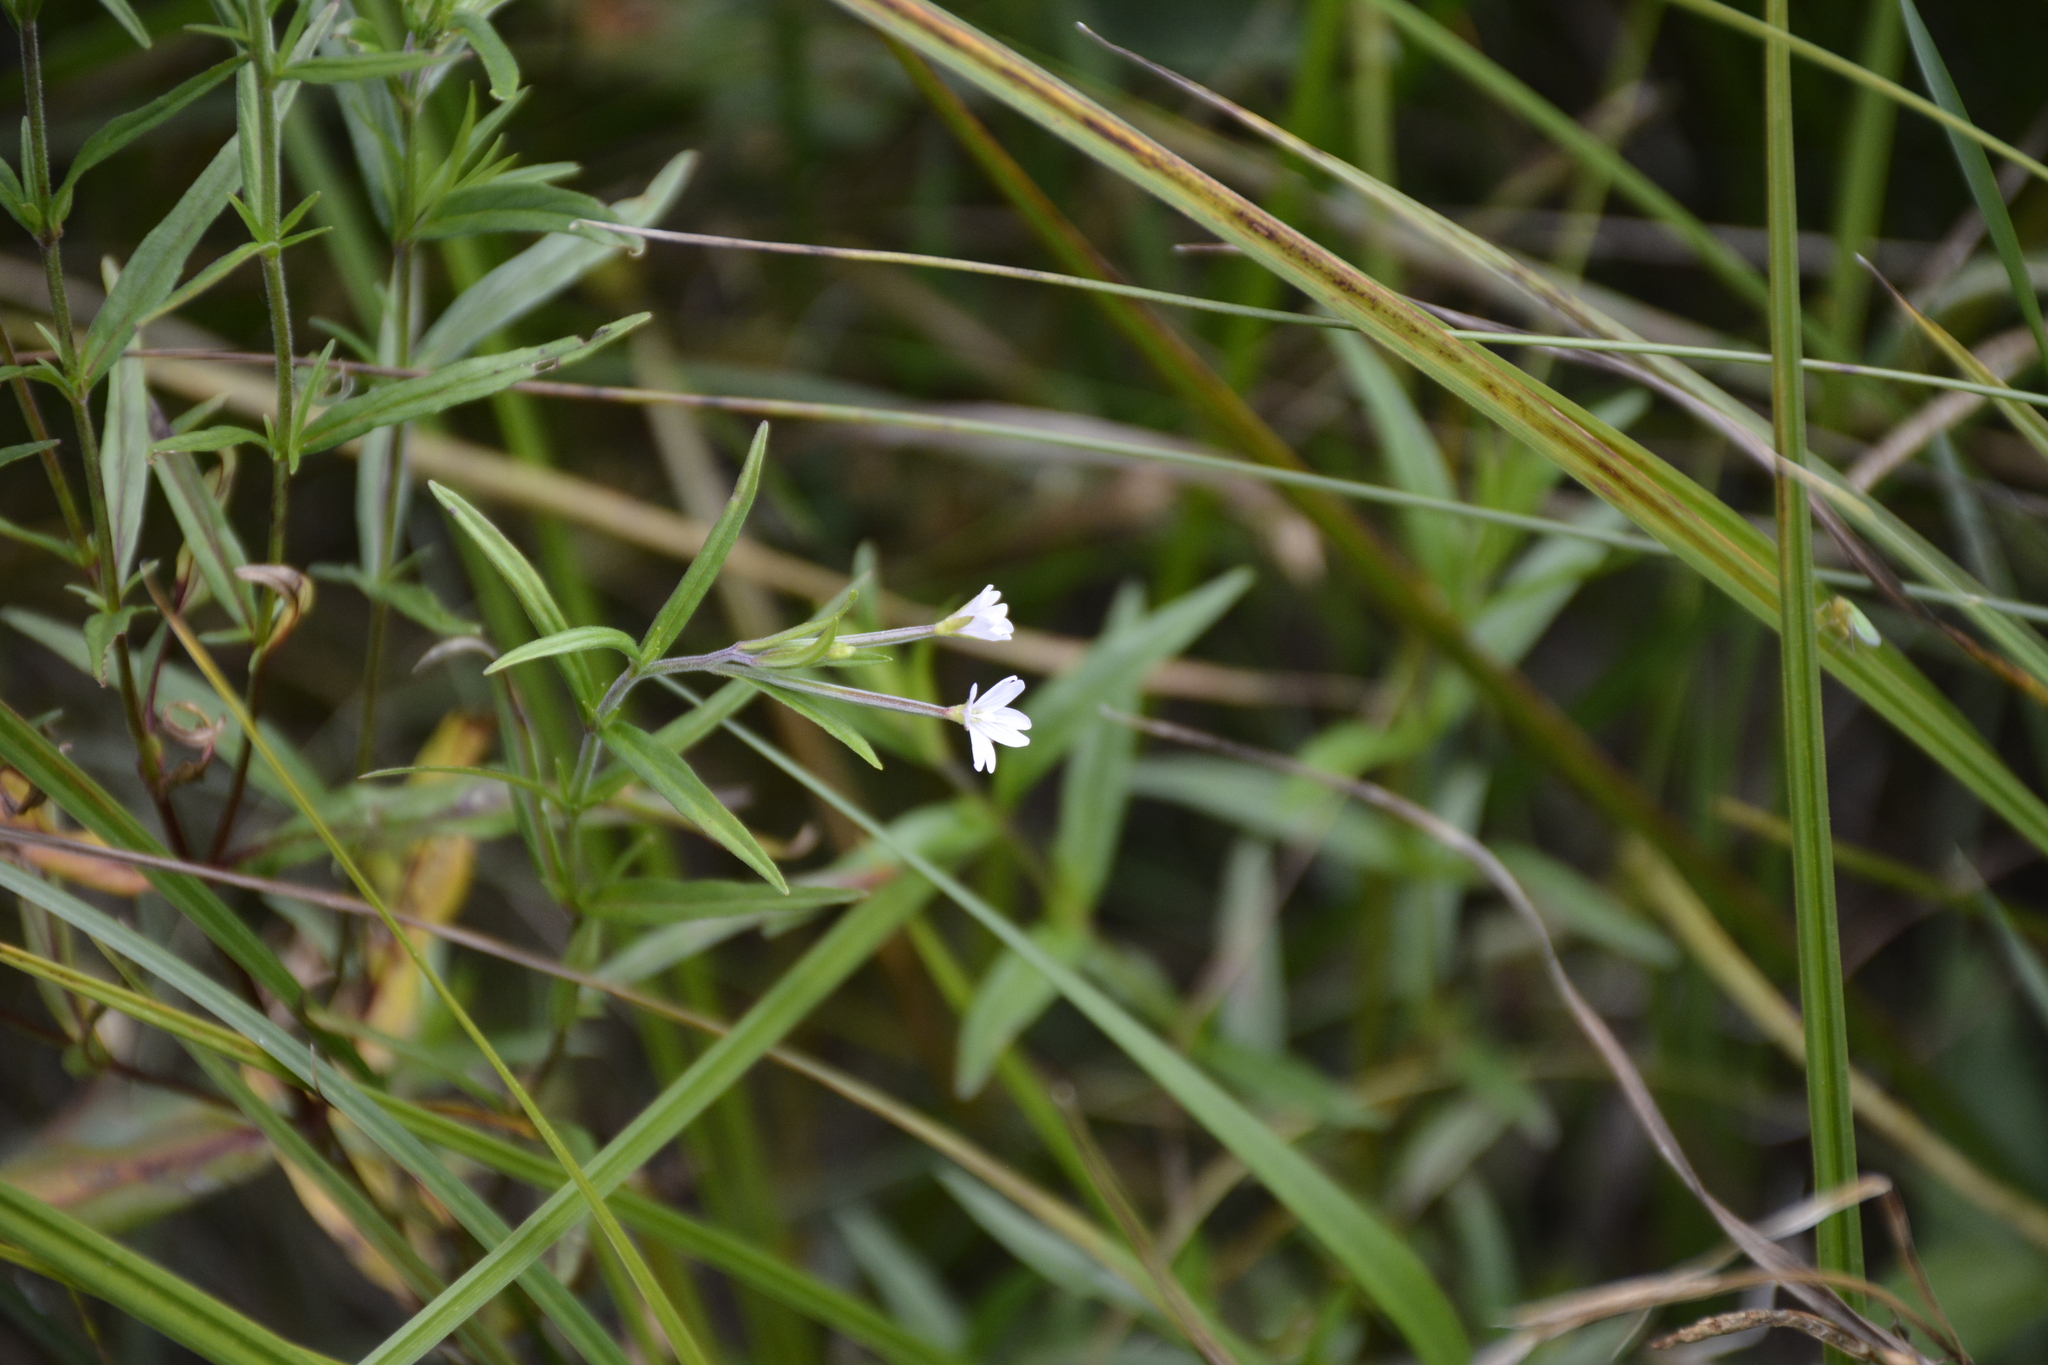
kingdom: Plantae
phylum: Tracheophyta
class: Magnoliopsida
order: Myrtales
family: Onagraceae
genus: Epilobium
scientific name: Epilobium palustre
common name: Marsh willowherb
